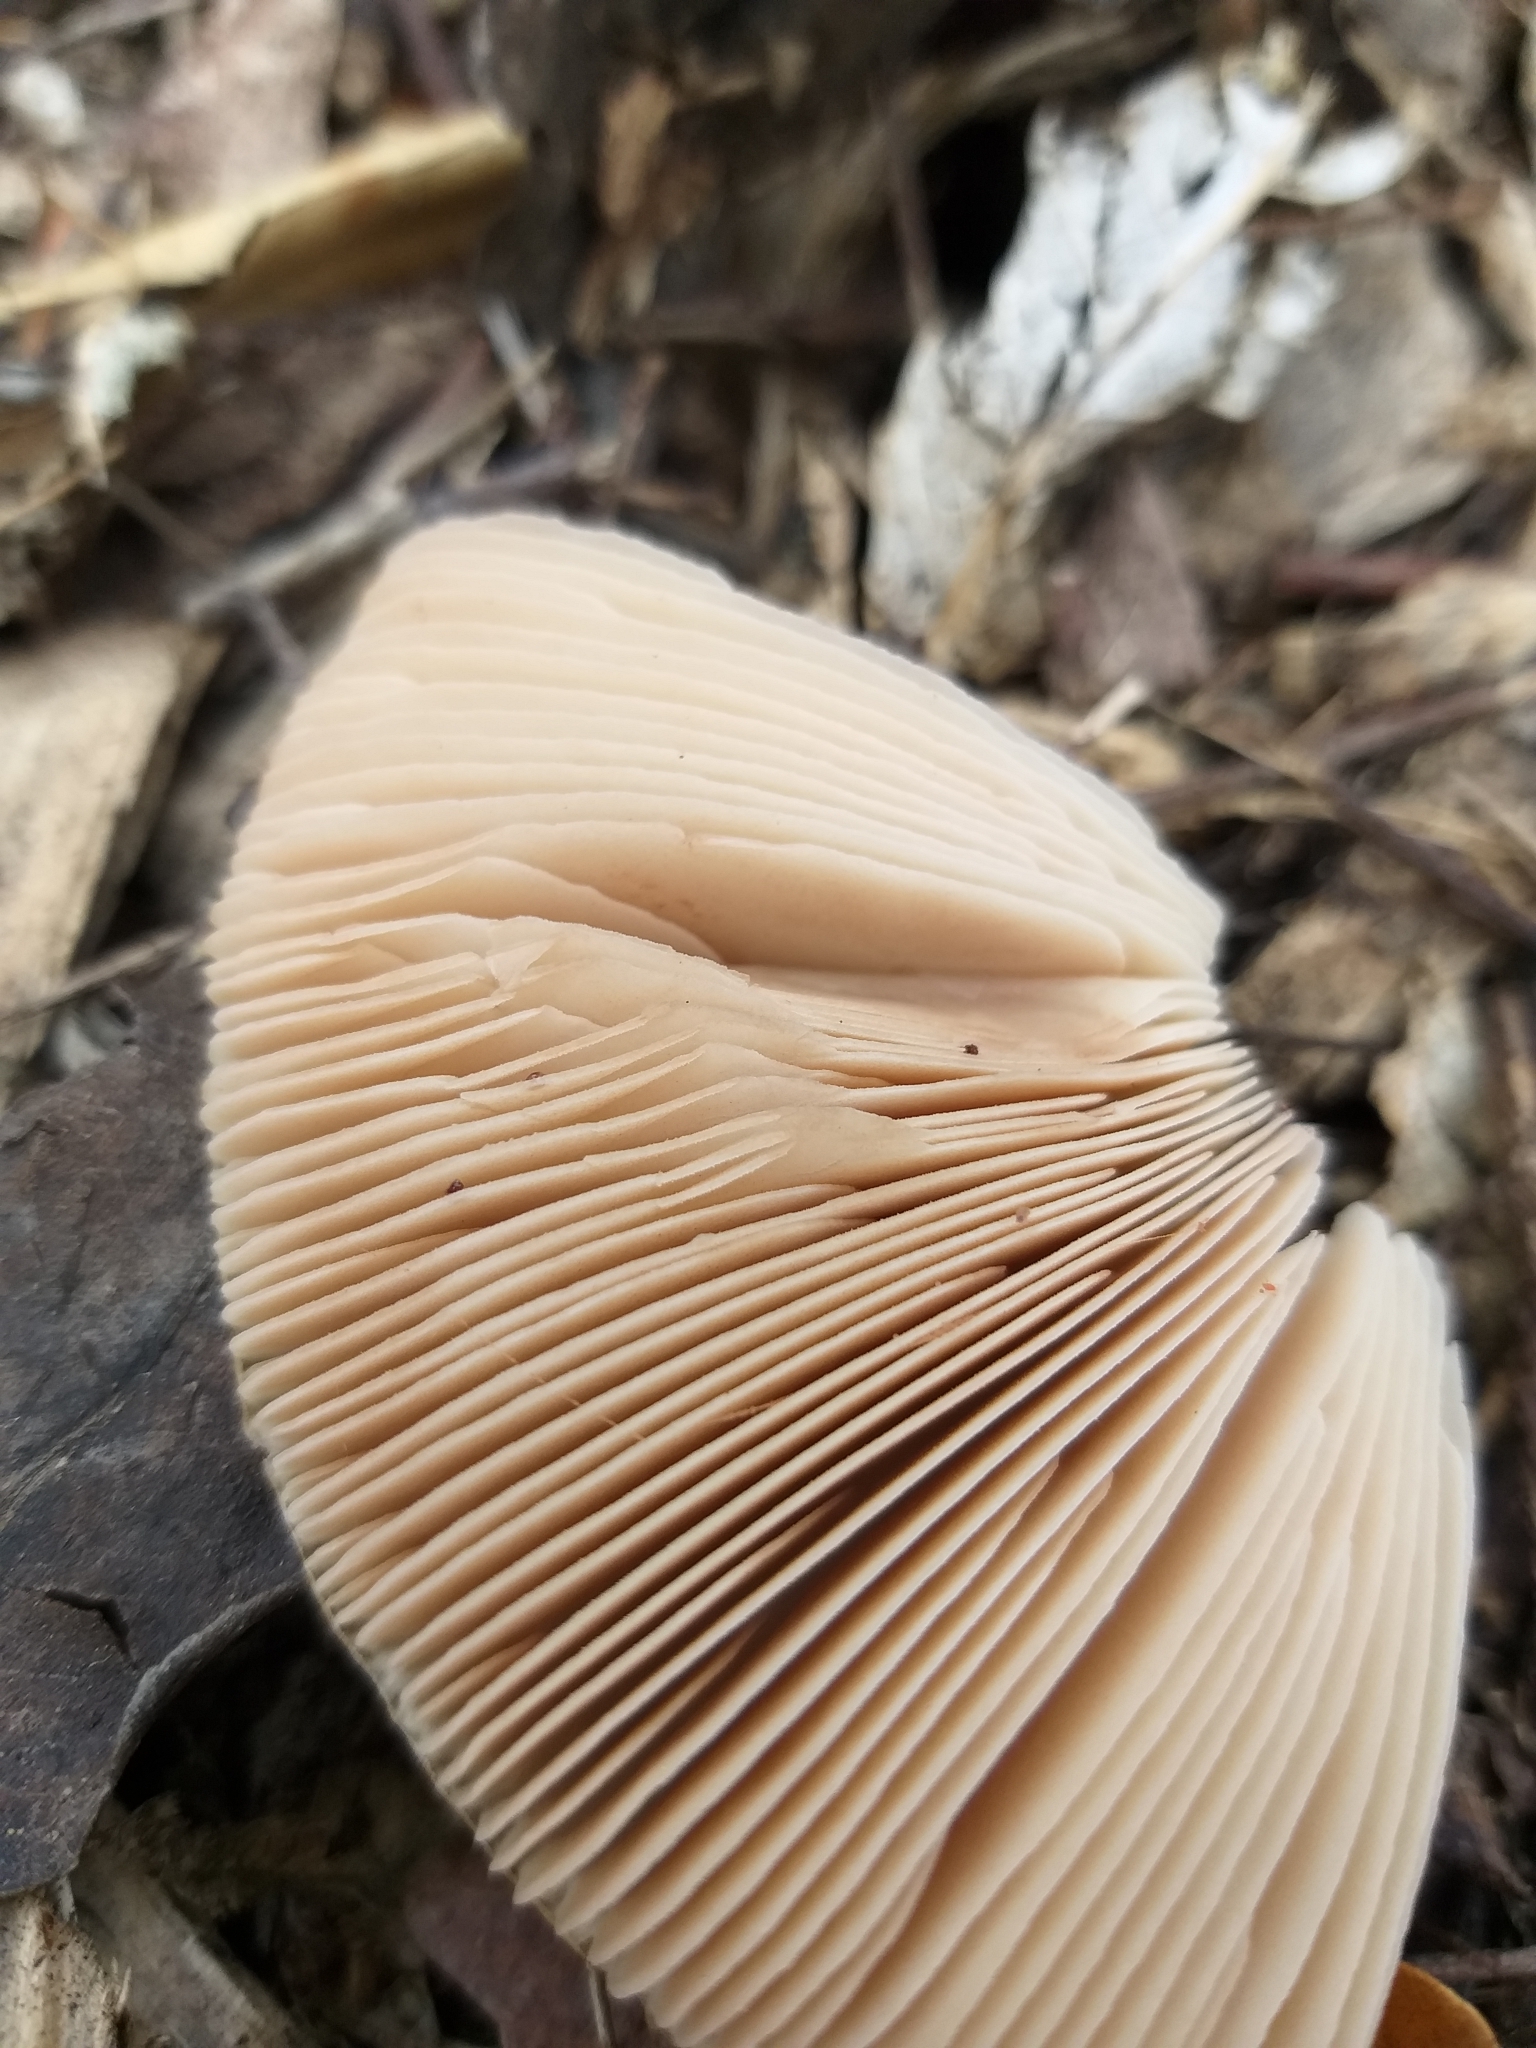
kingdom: Fungi
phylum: Basidiomycota
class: Agaricomycetes
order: Agaricales
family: Pluteaceae
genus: Volvopluteus
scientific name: Volvopluteus gloiocephalus
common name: Stubble rosegill
